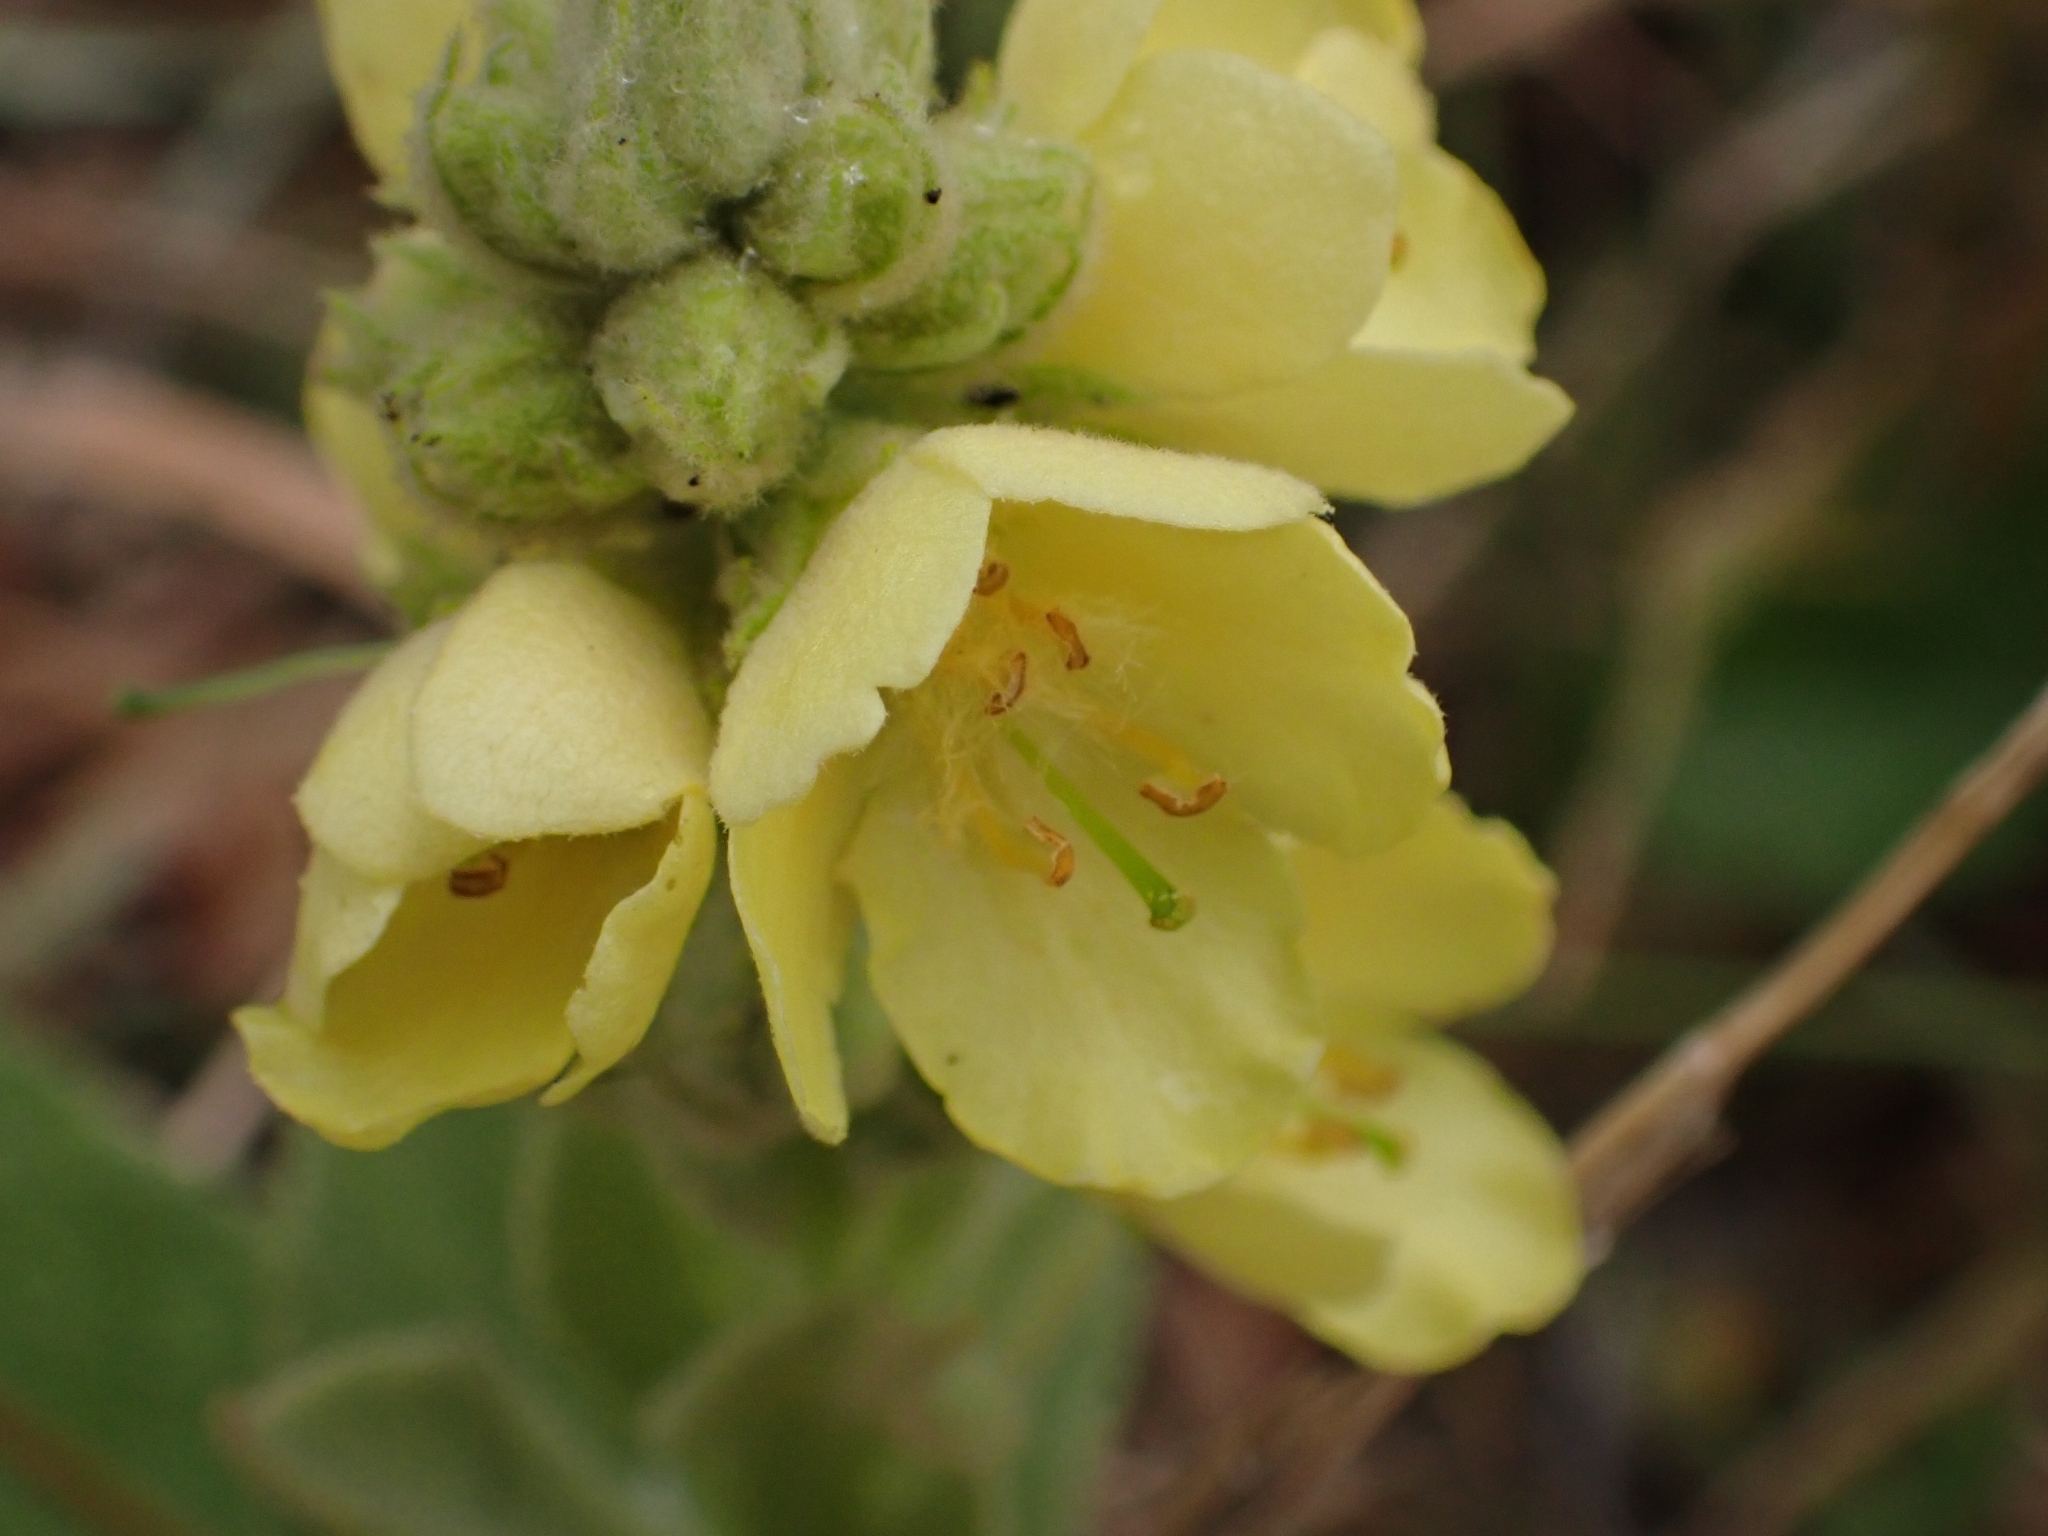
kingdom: Plantae
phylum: Tracheophyta
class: Magnoliopsida
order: Lamiales
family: Scrophulariaceae
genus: Verbascum
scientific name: Verbascum thapsus
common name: Common mullein
